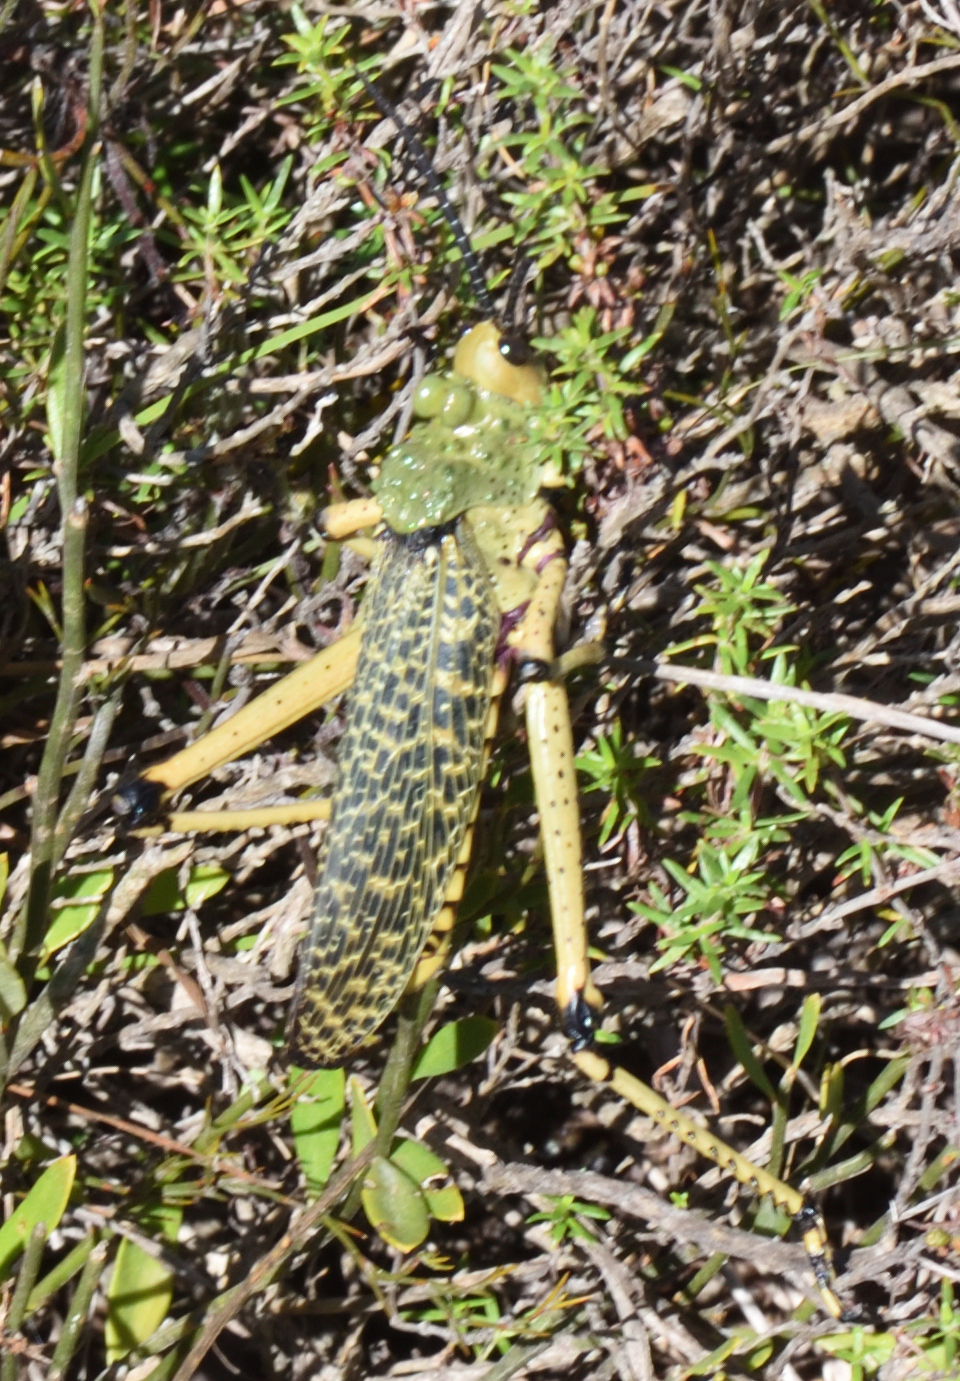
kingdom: Animalia
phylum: Arthropoda
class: Insecta
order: Orthoptera
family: Pyrgomorphidae
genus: Phymateus
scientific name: Phymateus leprosus
